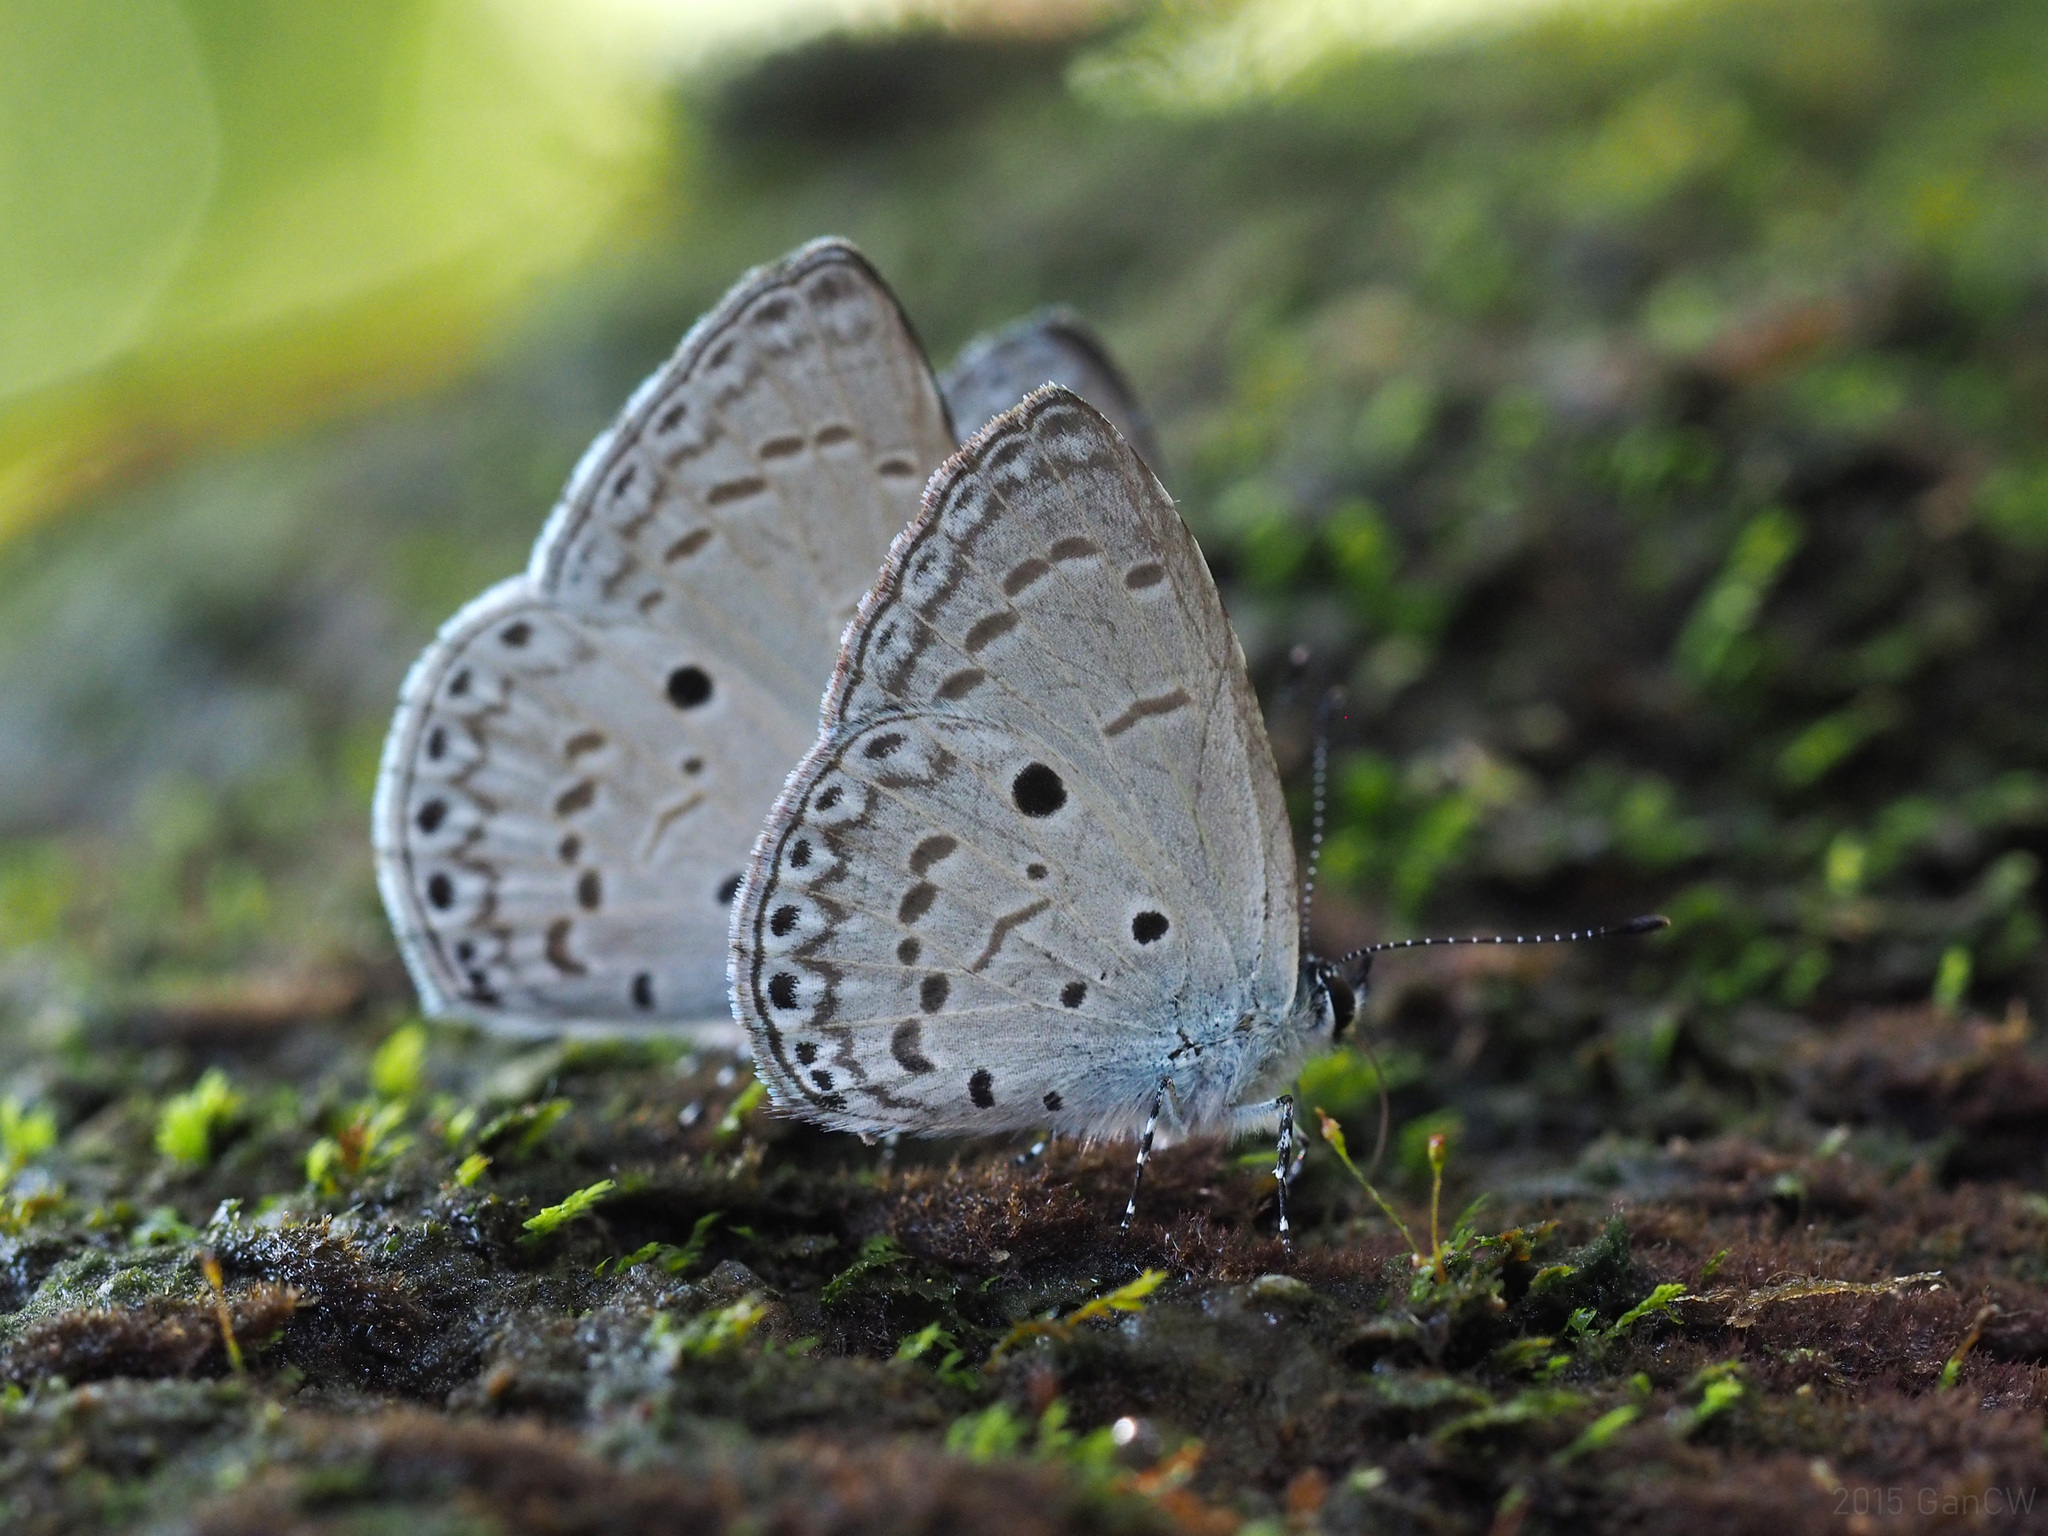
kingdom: Animalia
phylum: Arthropoda
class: Insecta
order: Lepidoptera
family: Lycaenidae
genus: Udara
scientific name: Udara
